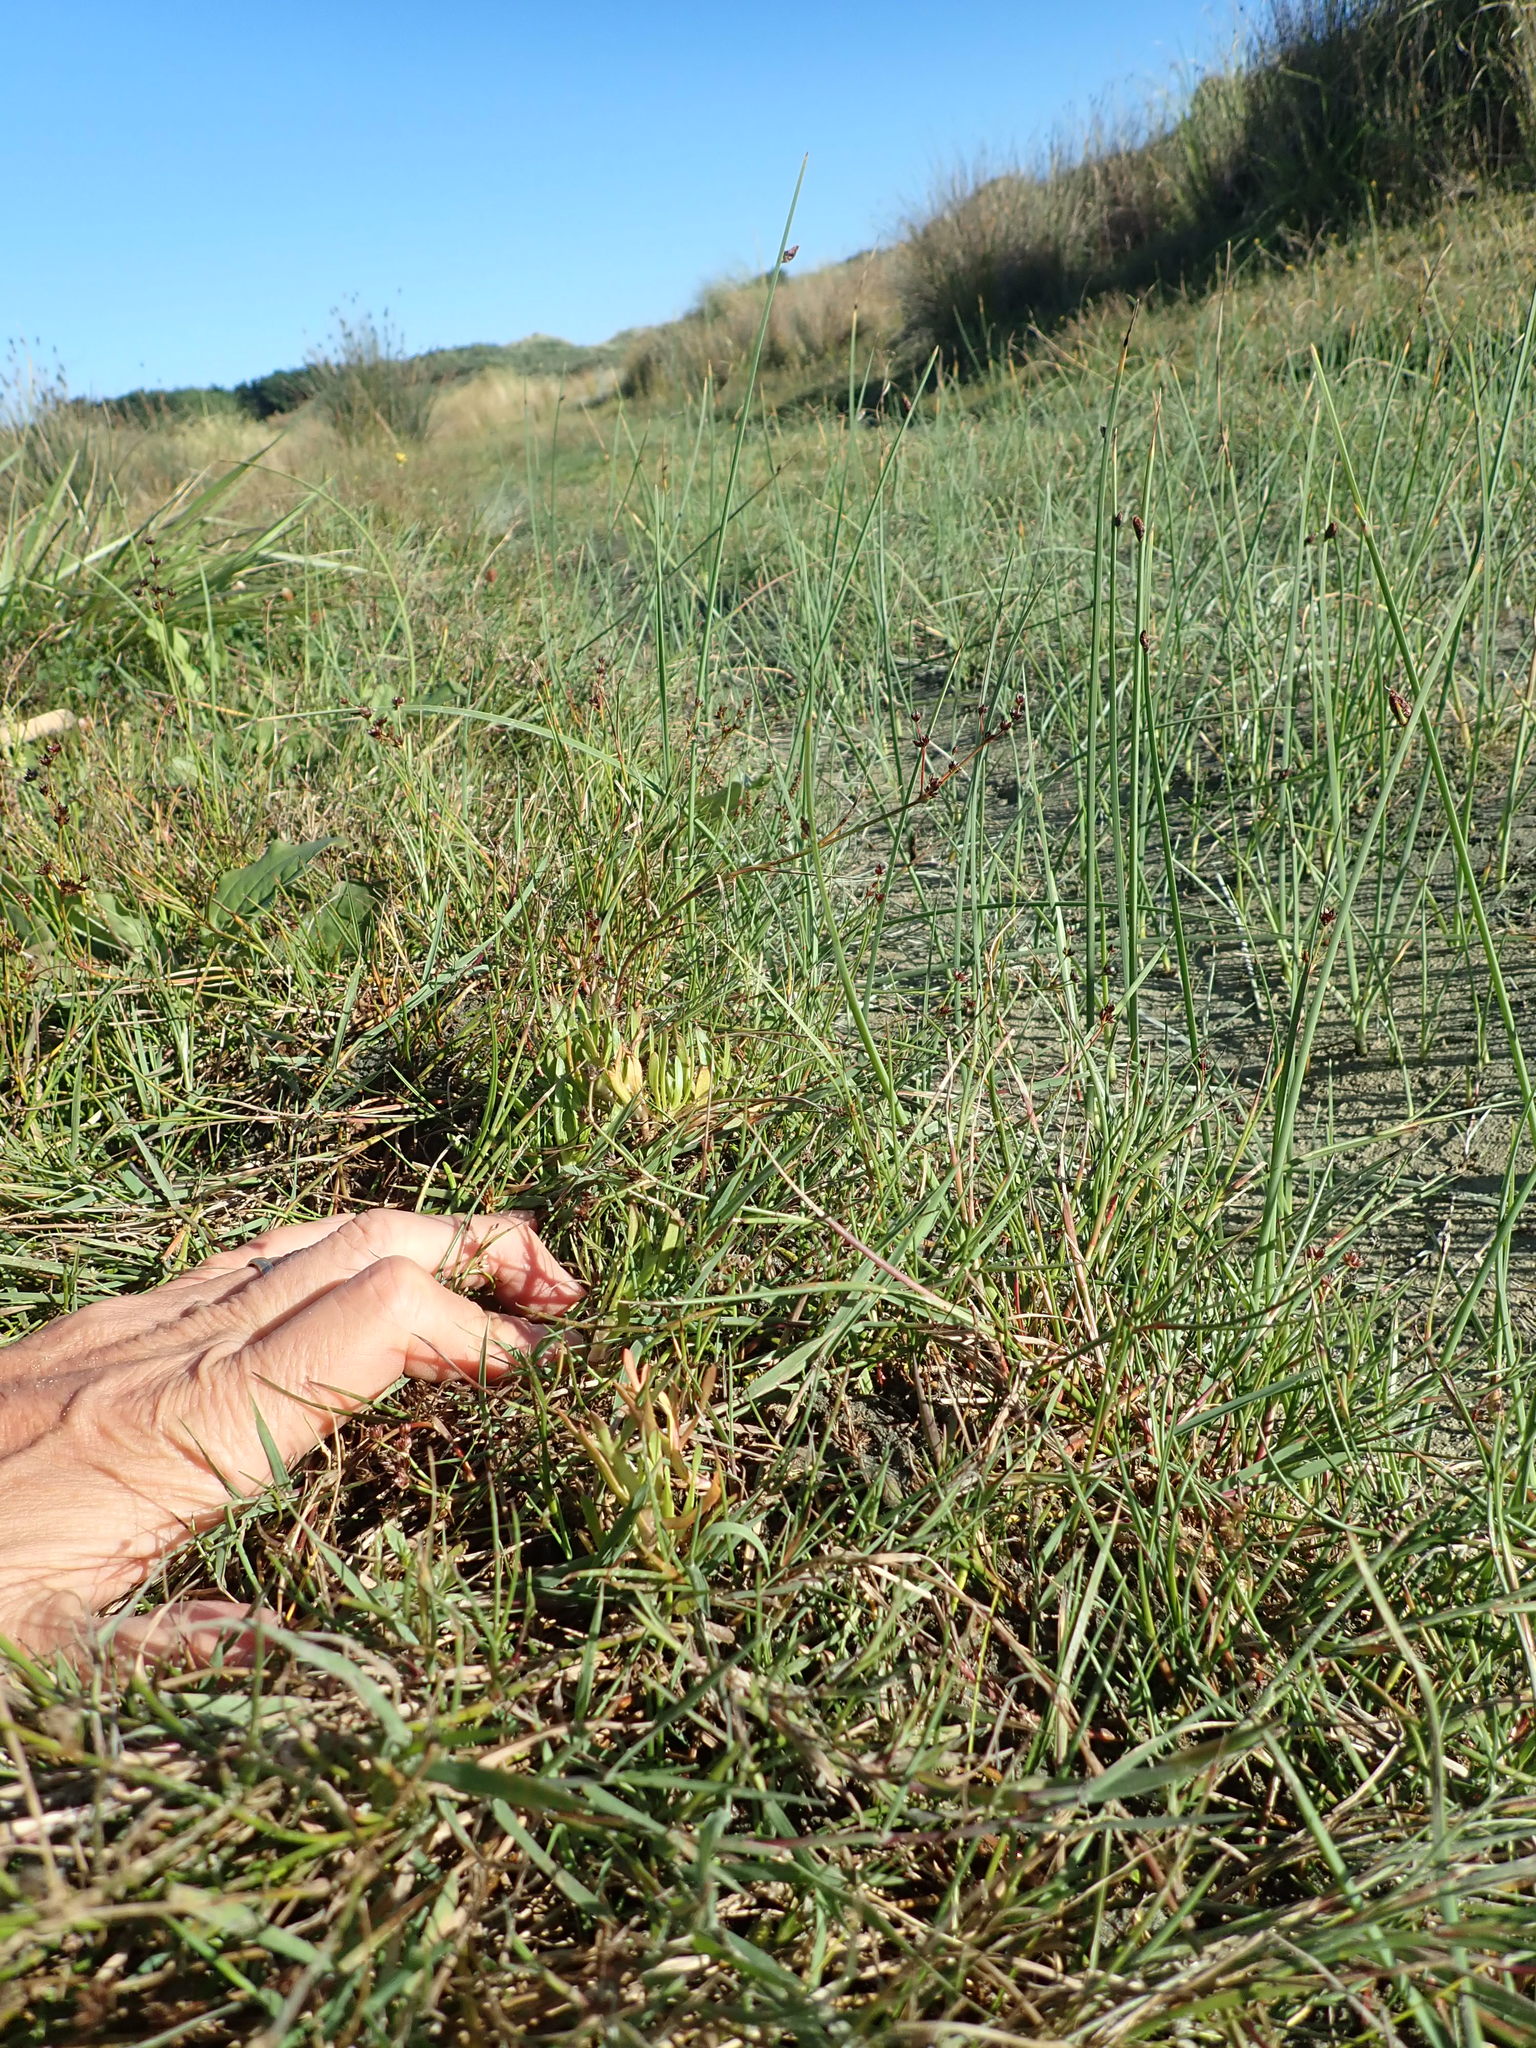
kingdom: Plantae
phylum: Tracheophyta
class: Magnoliopsida
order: Asterales
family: Asteraceae
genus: Cotula
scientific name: Cotula coronopifolia
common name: Buttonweed
